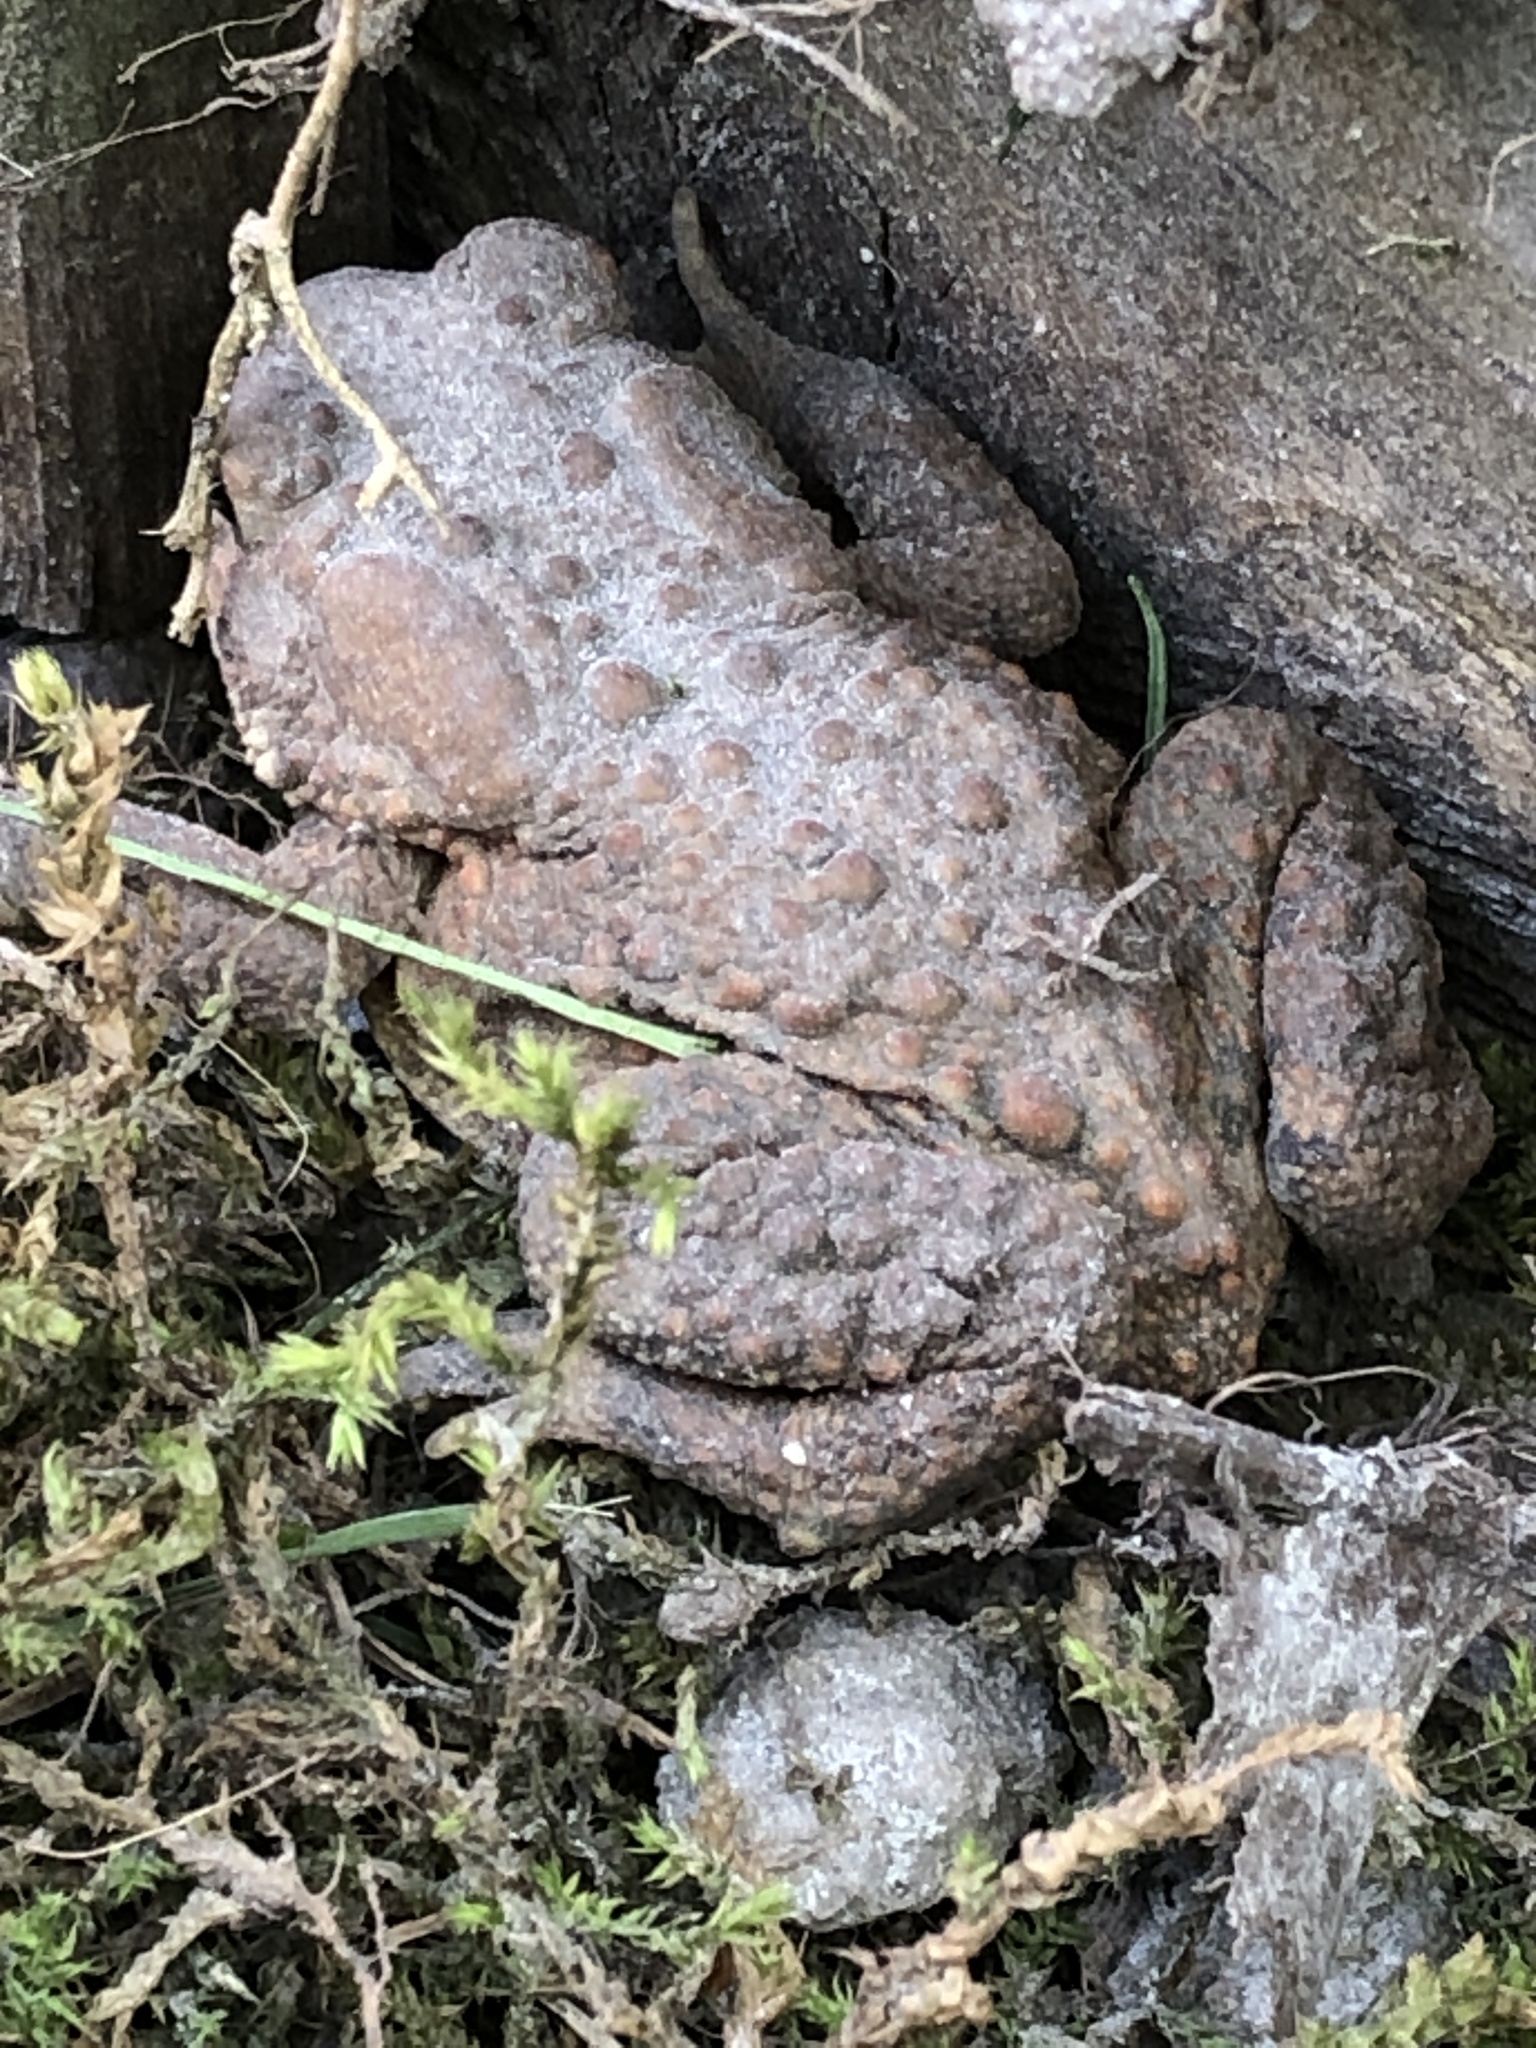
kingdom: Animalia
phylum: Chordata
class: Amphibia
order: Anura
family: Bufonidae
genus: Anaxyrus
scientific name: Anaxyrus americanus
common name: American toad
